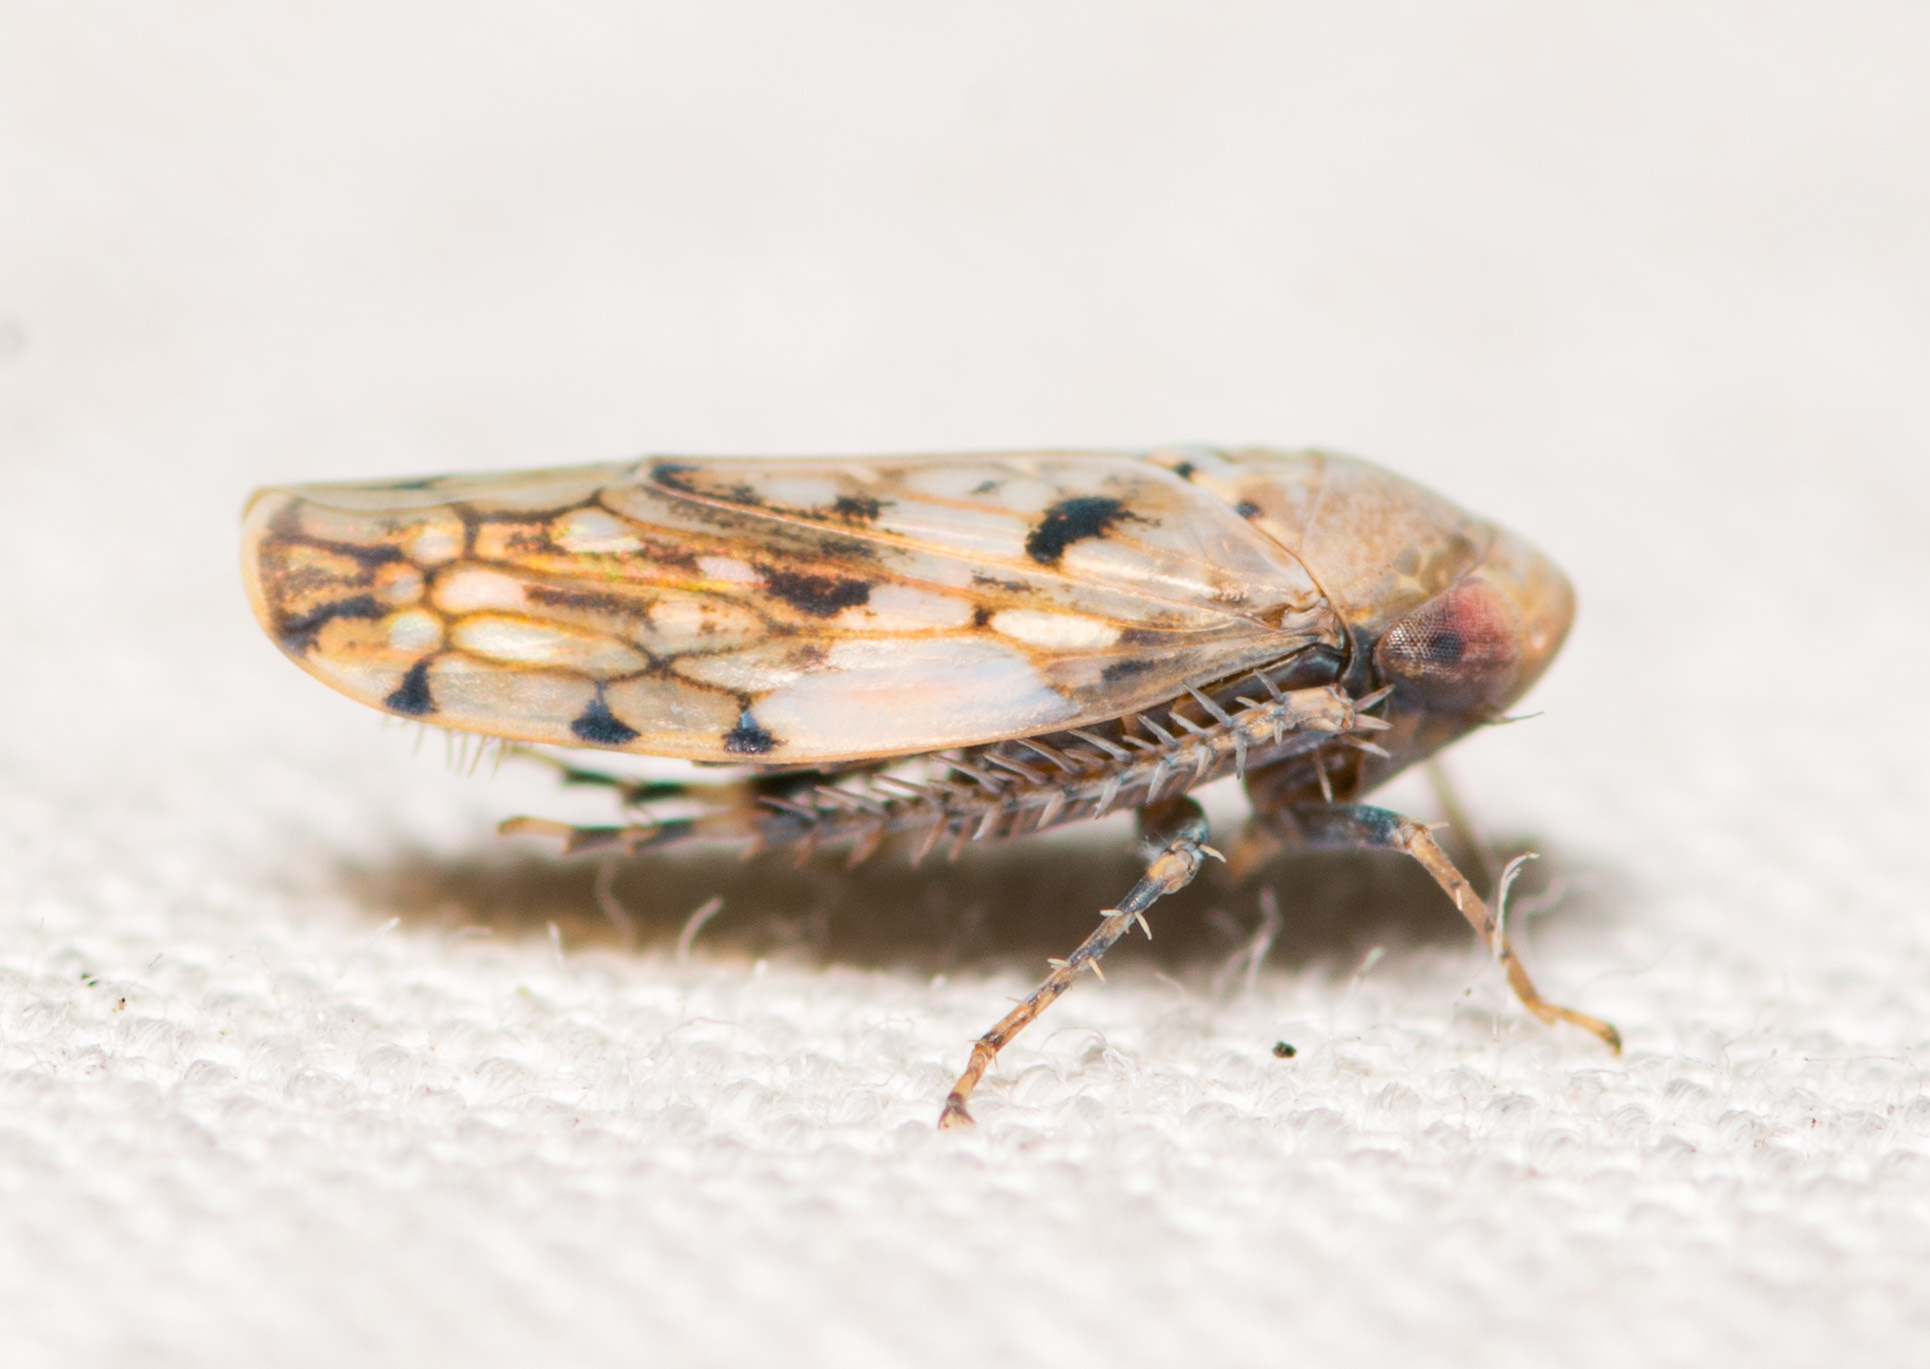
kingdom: Animalia
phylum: Arthropoda
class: Insecta
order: Hemiptera
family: Cicadellidae
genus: Menosoma
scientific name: Menosoma cinctum
